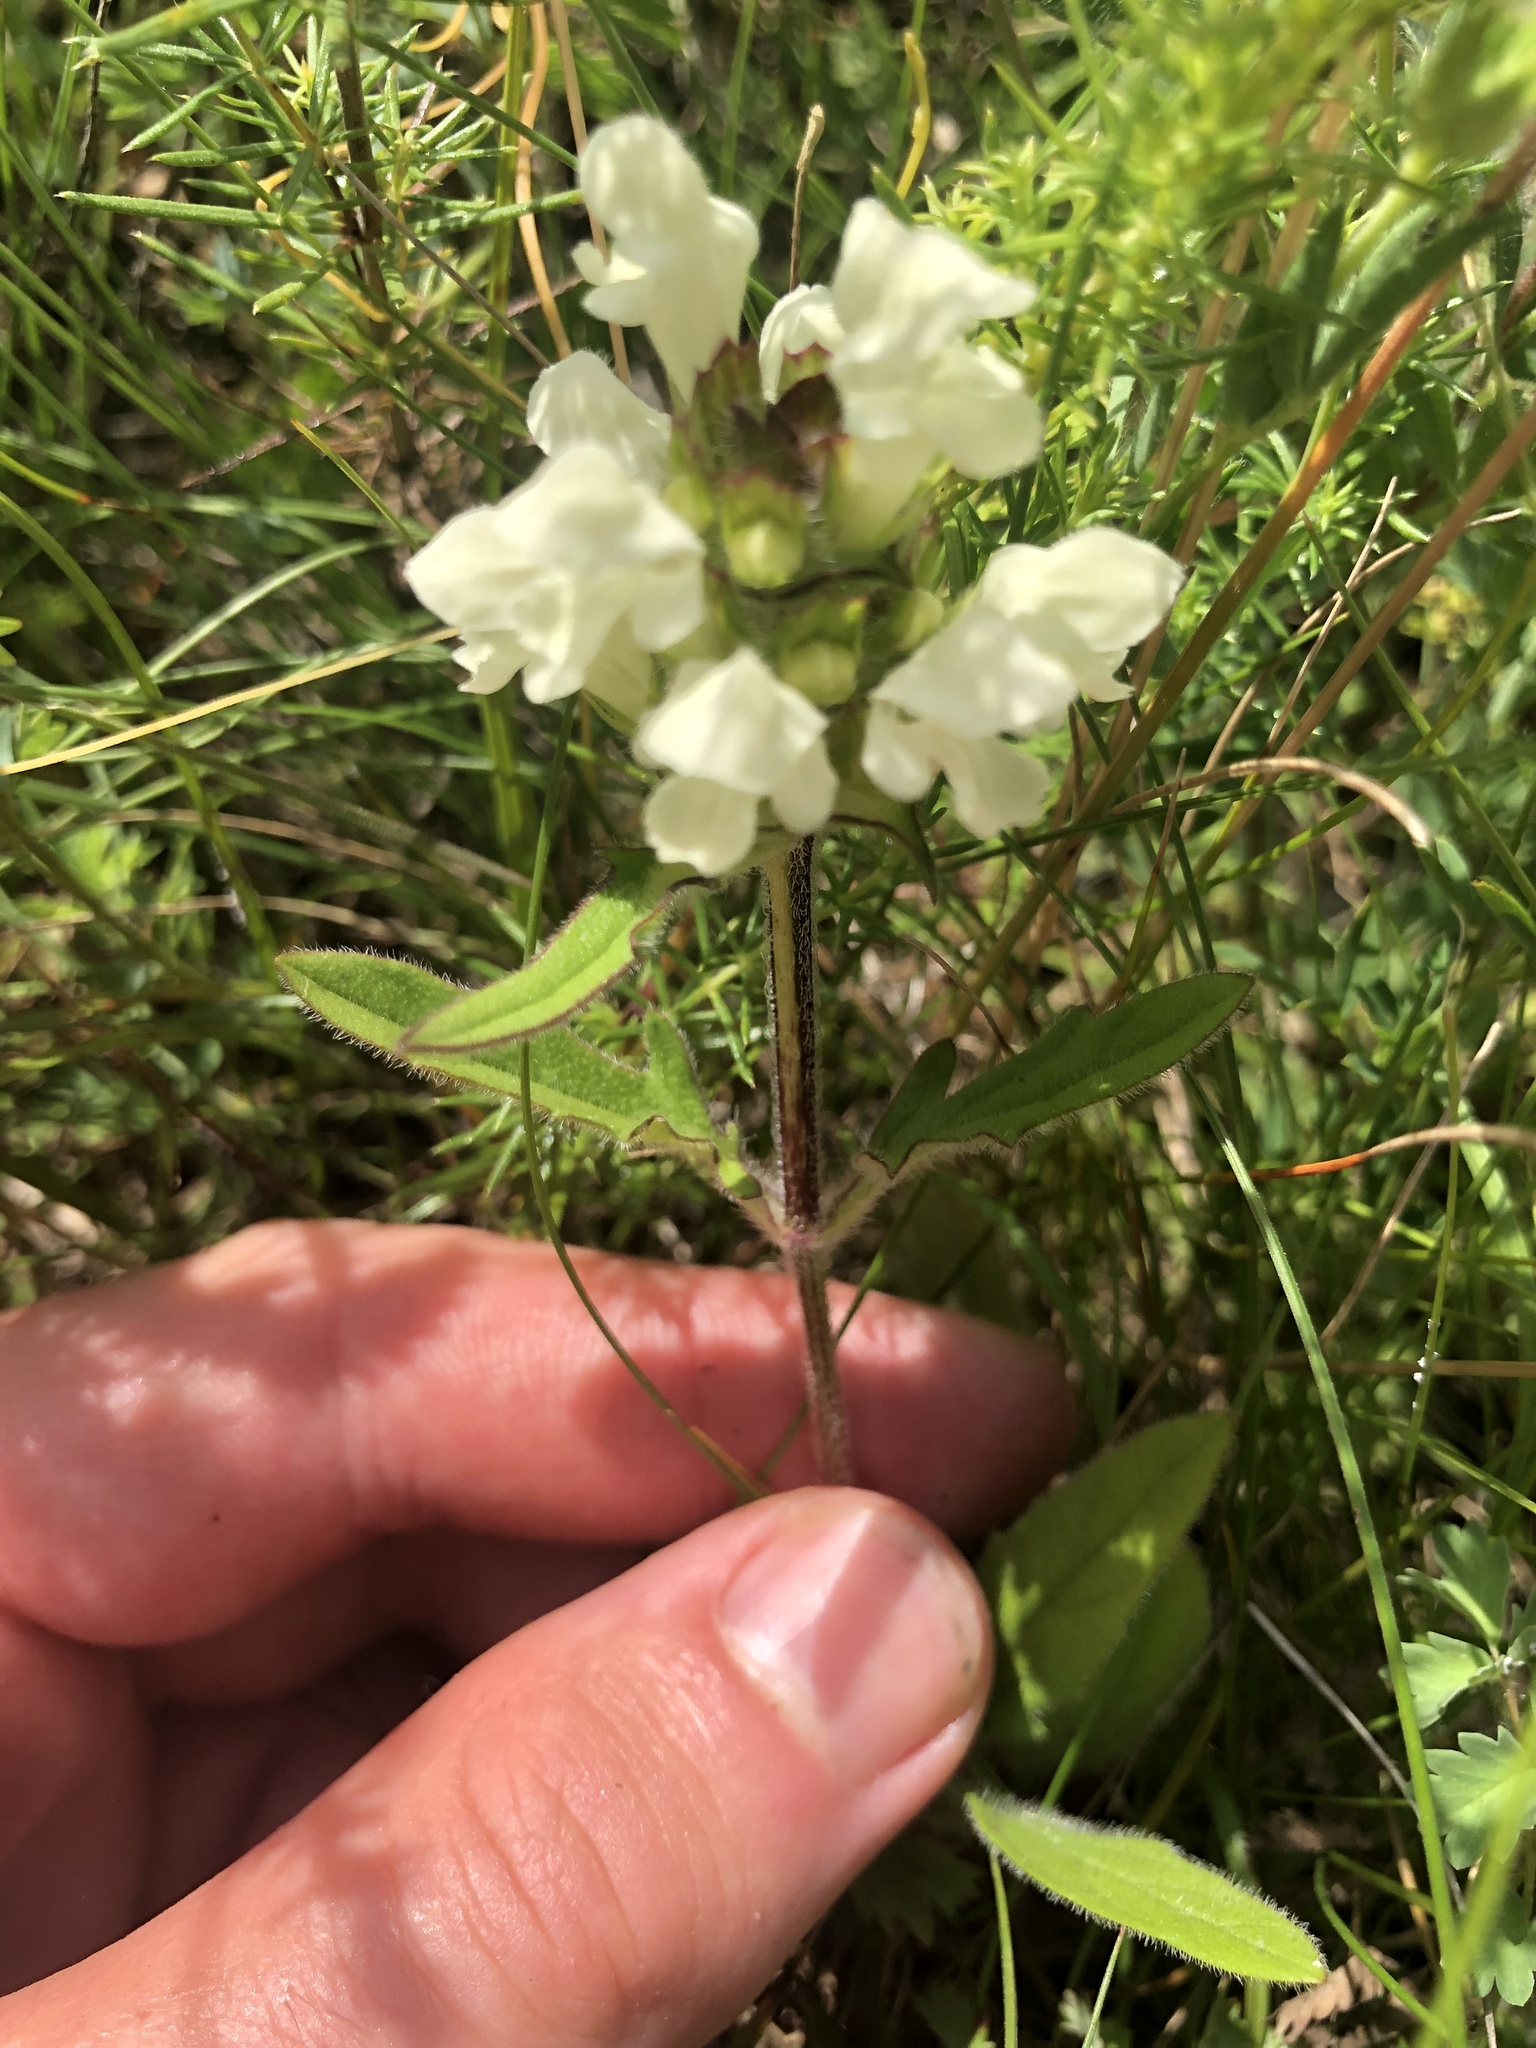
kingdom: Plantae
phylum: Tracheophyta
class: Magnoliopsida
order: Lamiales
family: Lamiaceae
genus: Prunella
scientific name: Prunella laciniata
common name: Cut-leaved selfheal
